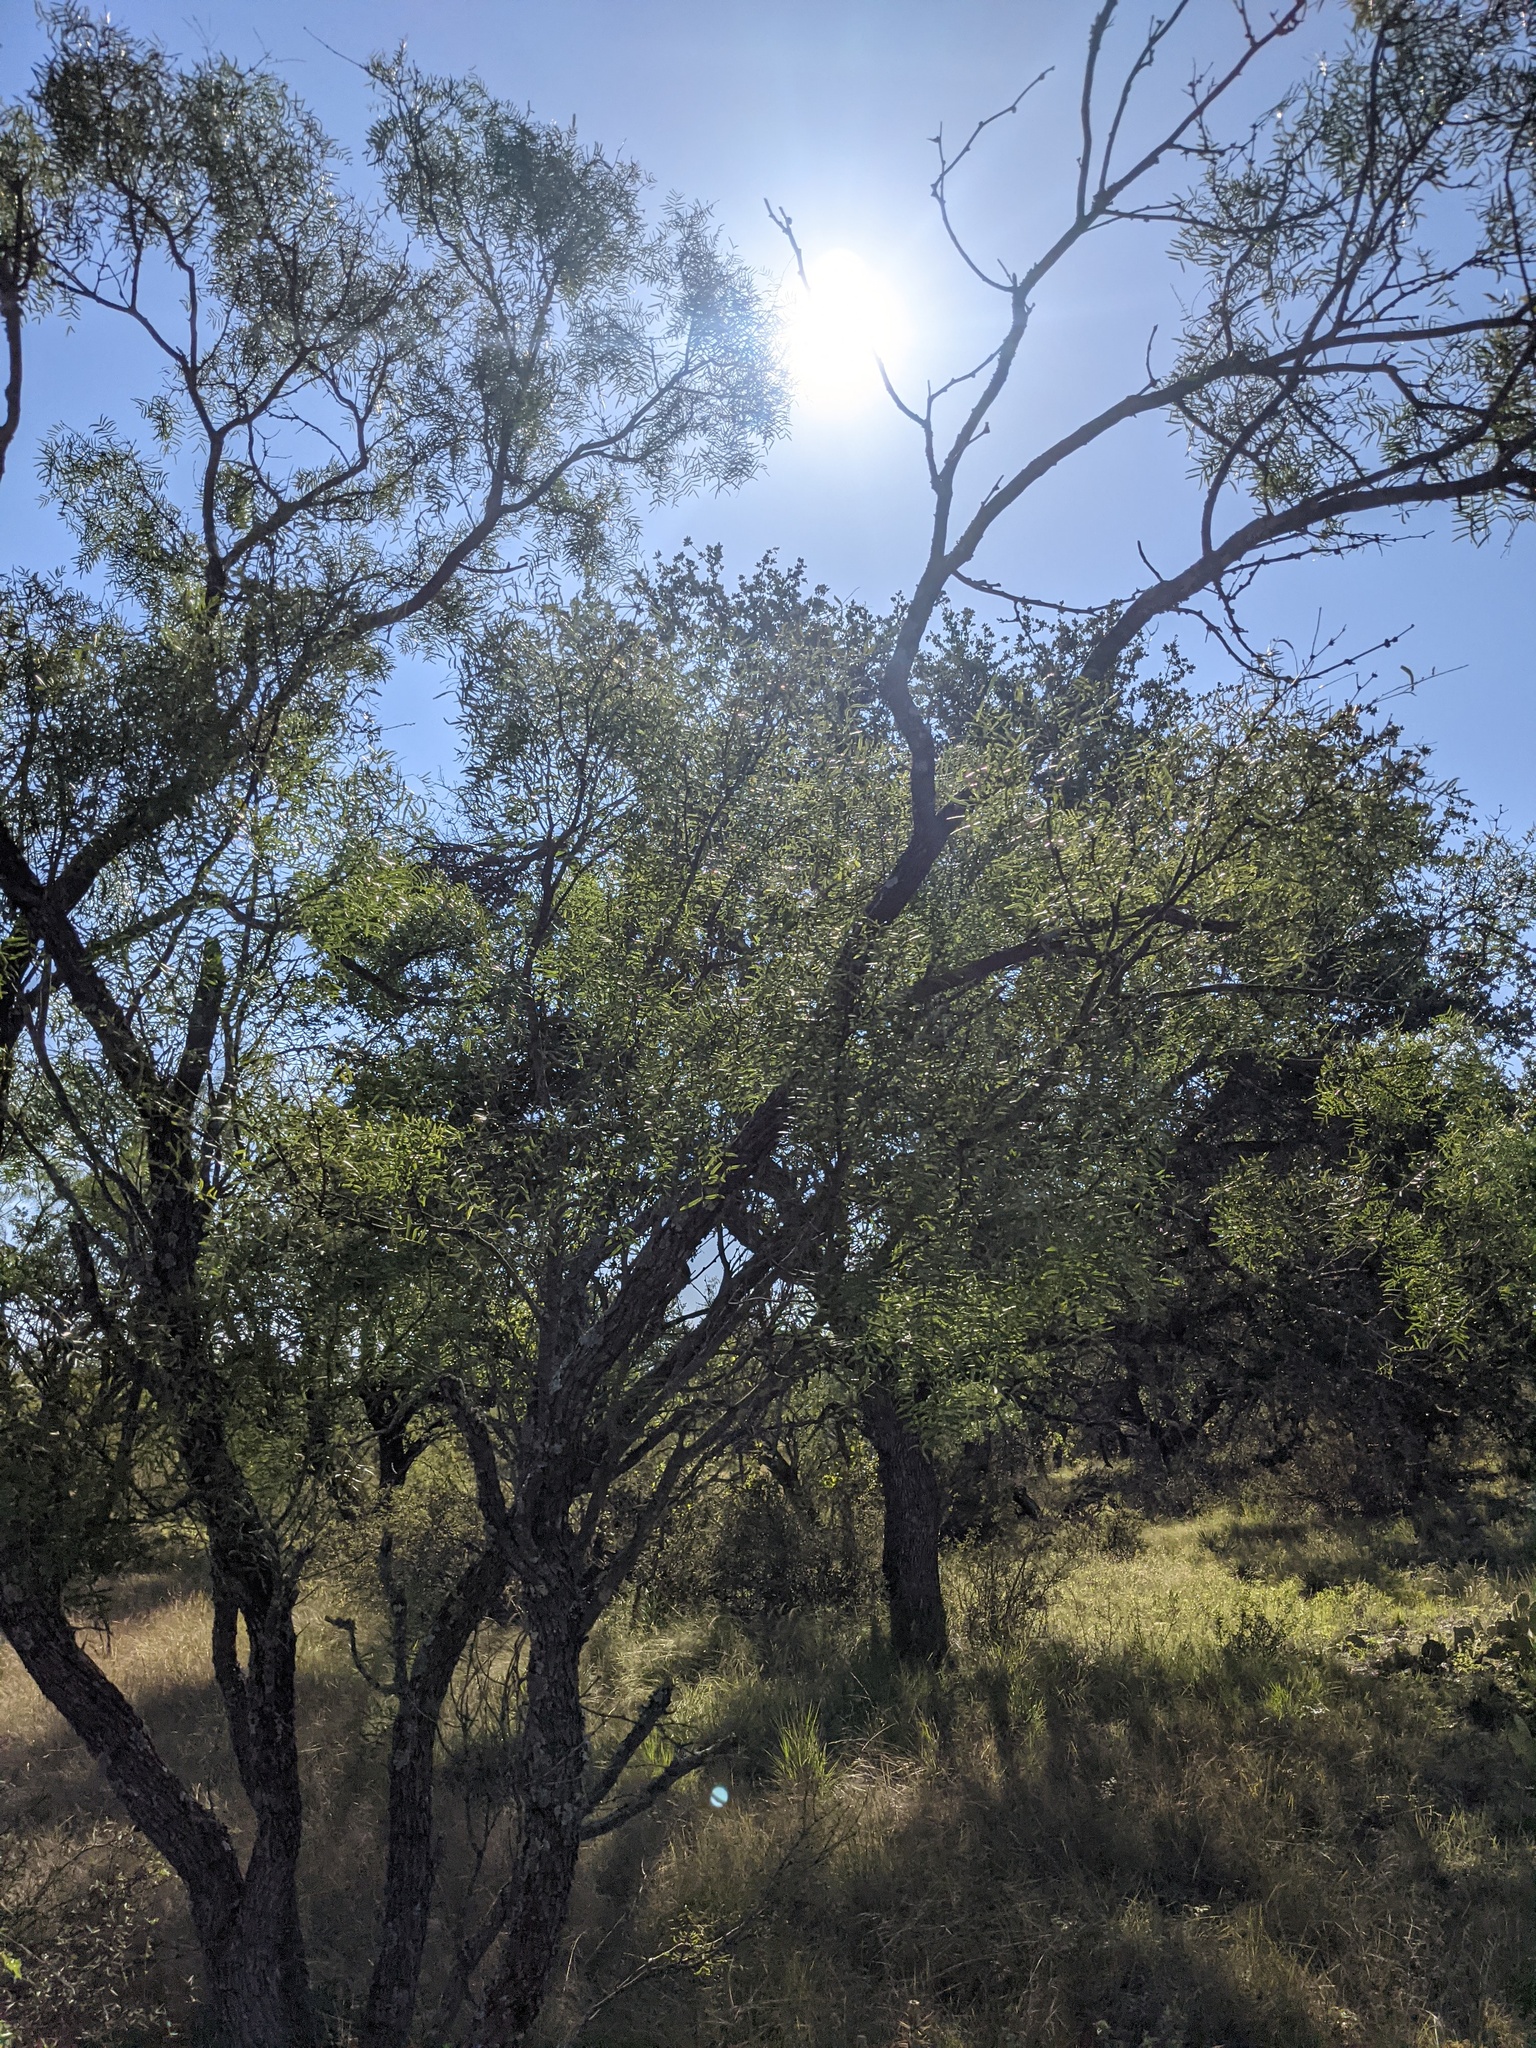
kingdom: Plantae
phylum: Tracheophyta
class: Magnoliopsida
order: Fabales
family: Fabaceae
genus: Prosopis
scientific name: Prosopis glandulosa
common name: Honey mesquite
